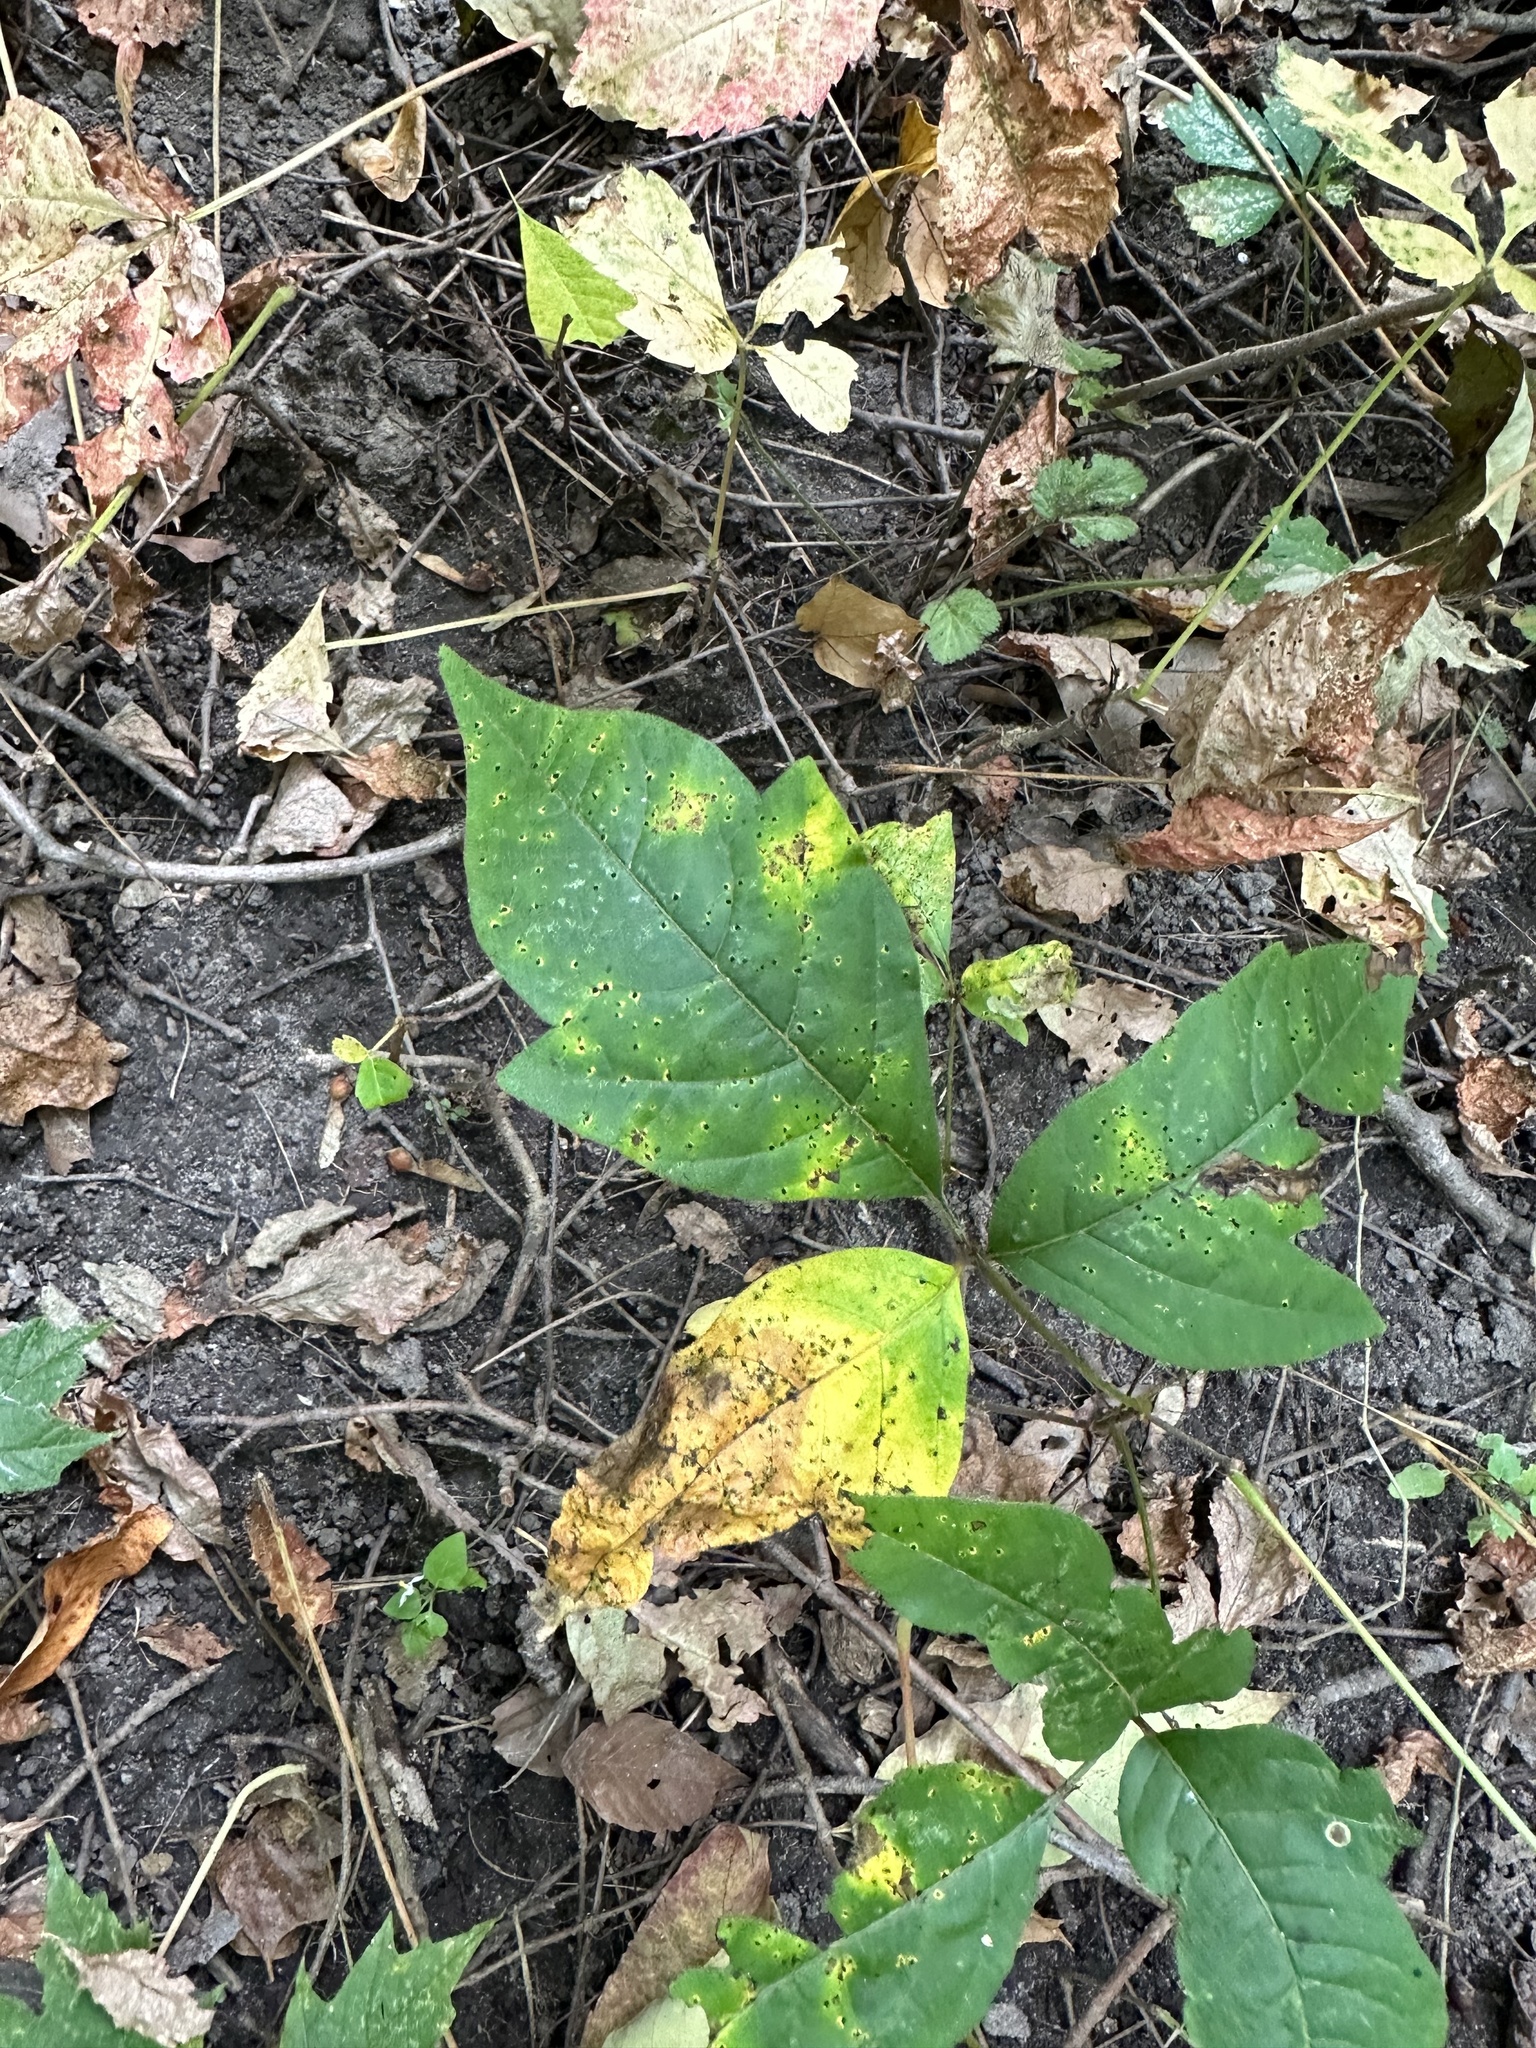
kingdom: Plantae
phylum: Tracheophyta
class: Magnoliopsida
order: Sapindales
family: Anacardiaceae
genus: Toxicodendron
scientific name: Toxicodendron radicans
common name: Poison ivy
